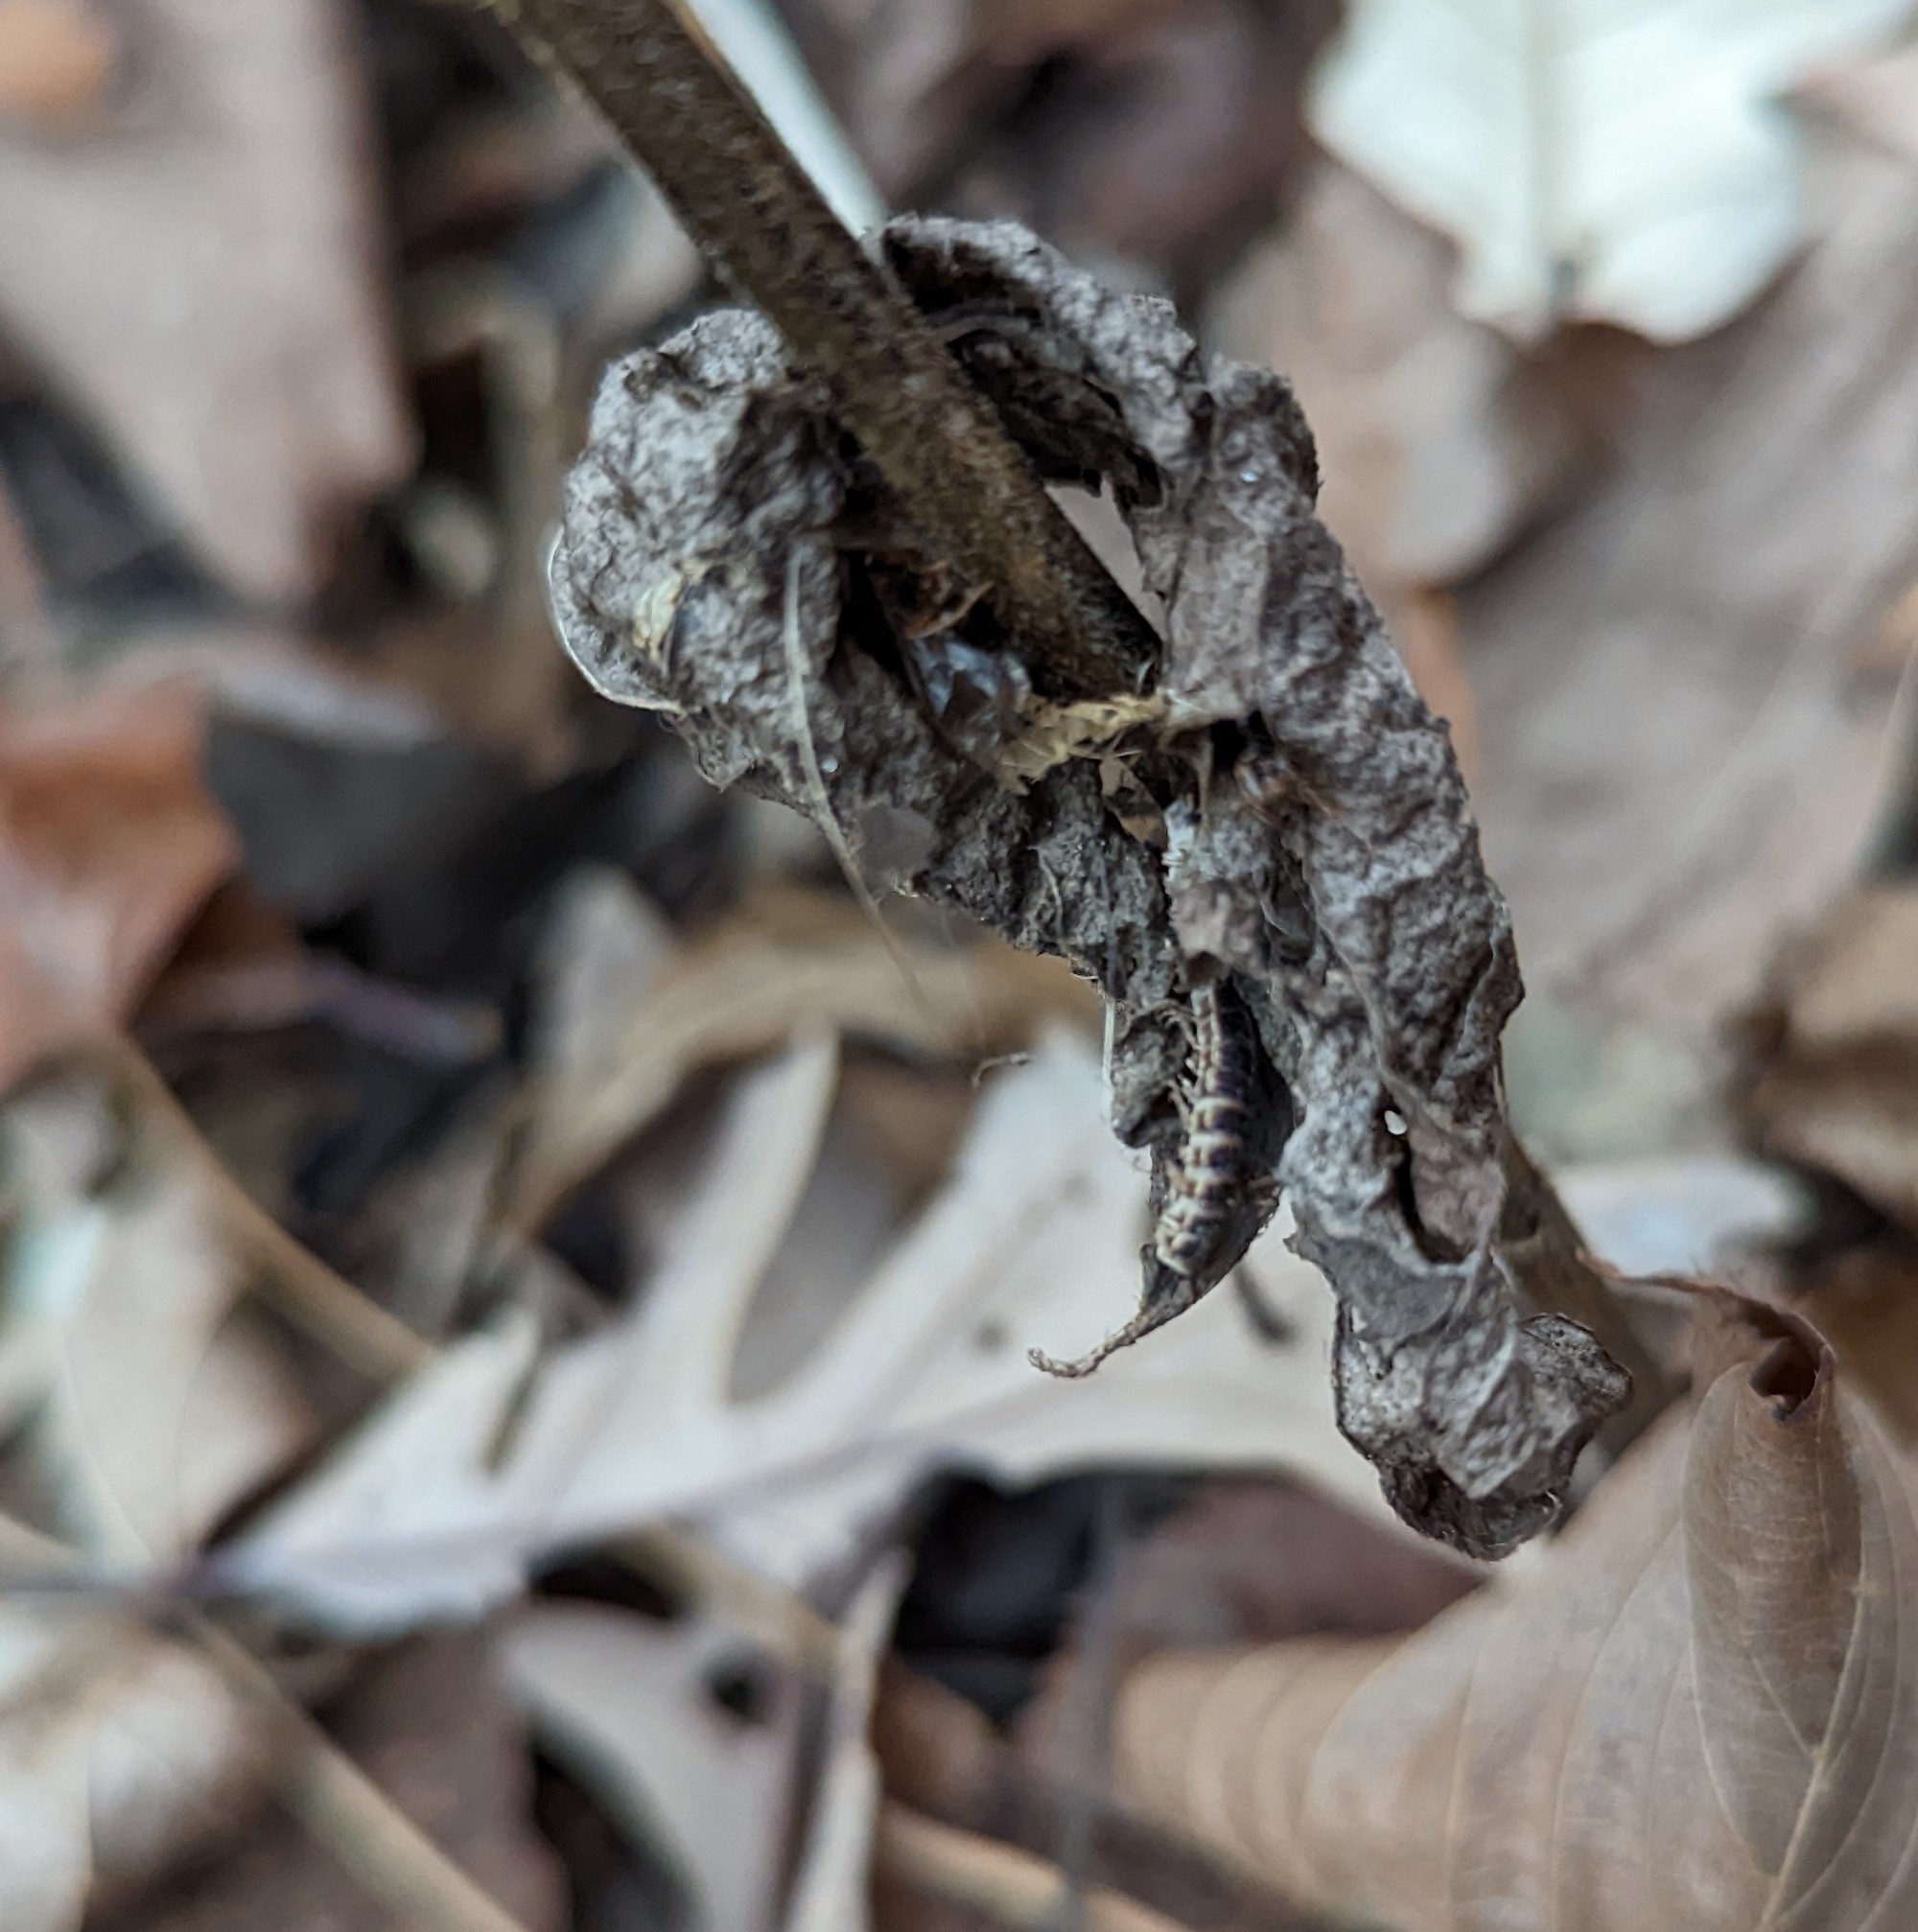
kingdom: Animalia
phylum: Arthropoda
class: Diplopoda
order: Polydesmida
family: Paradoxosomatidae
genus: Oxidus
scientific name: Oxidus gracilis
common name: Greenhouse millipede
